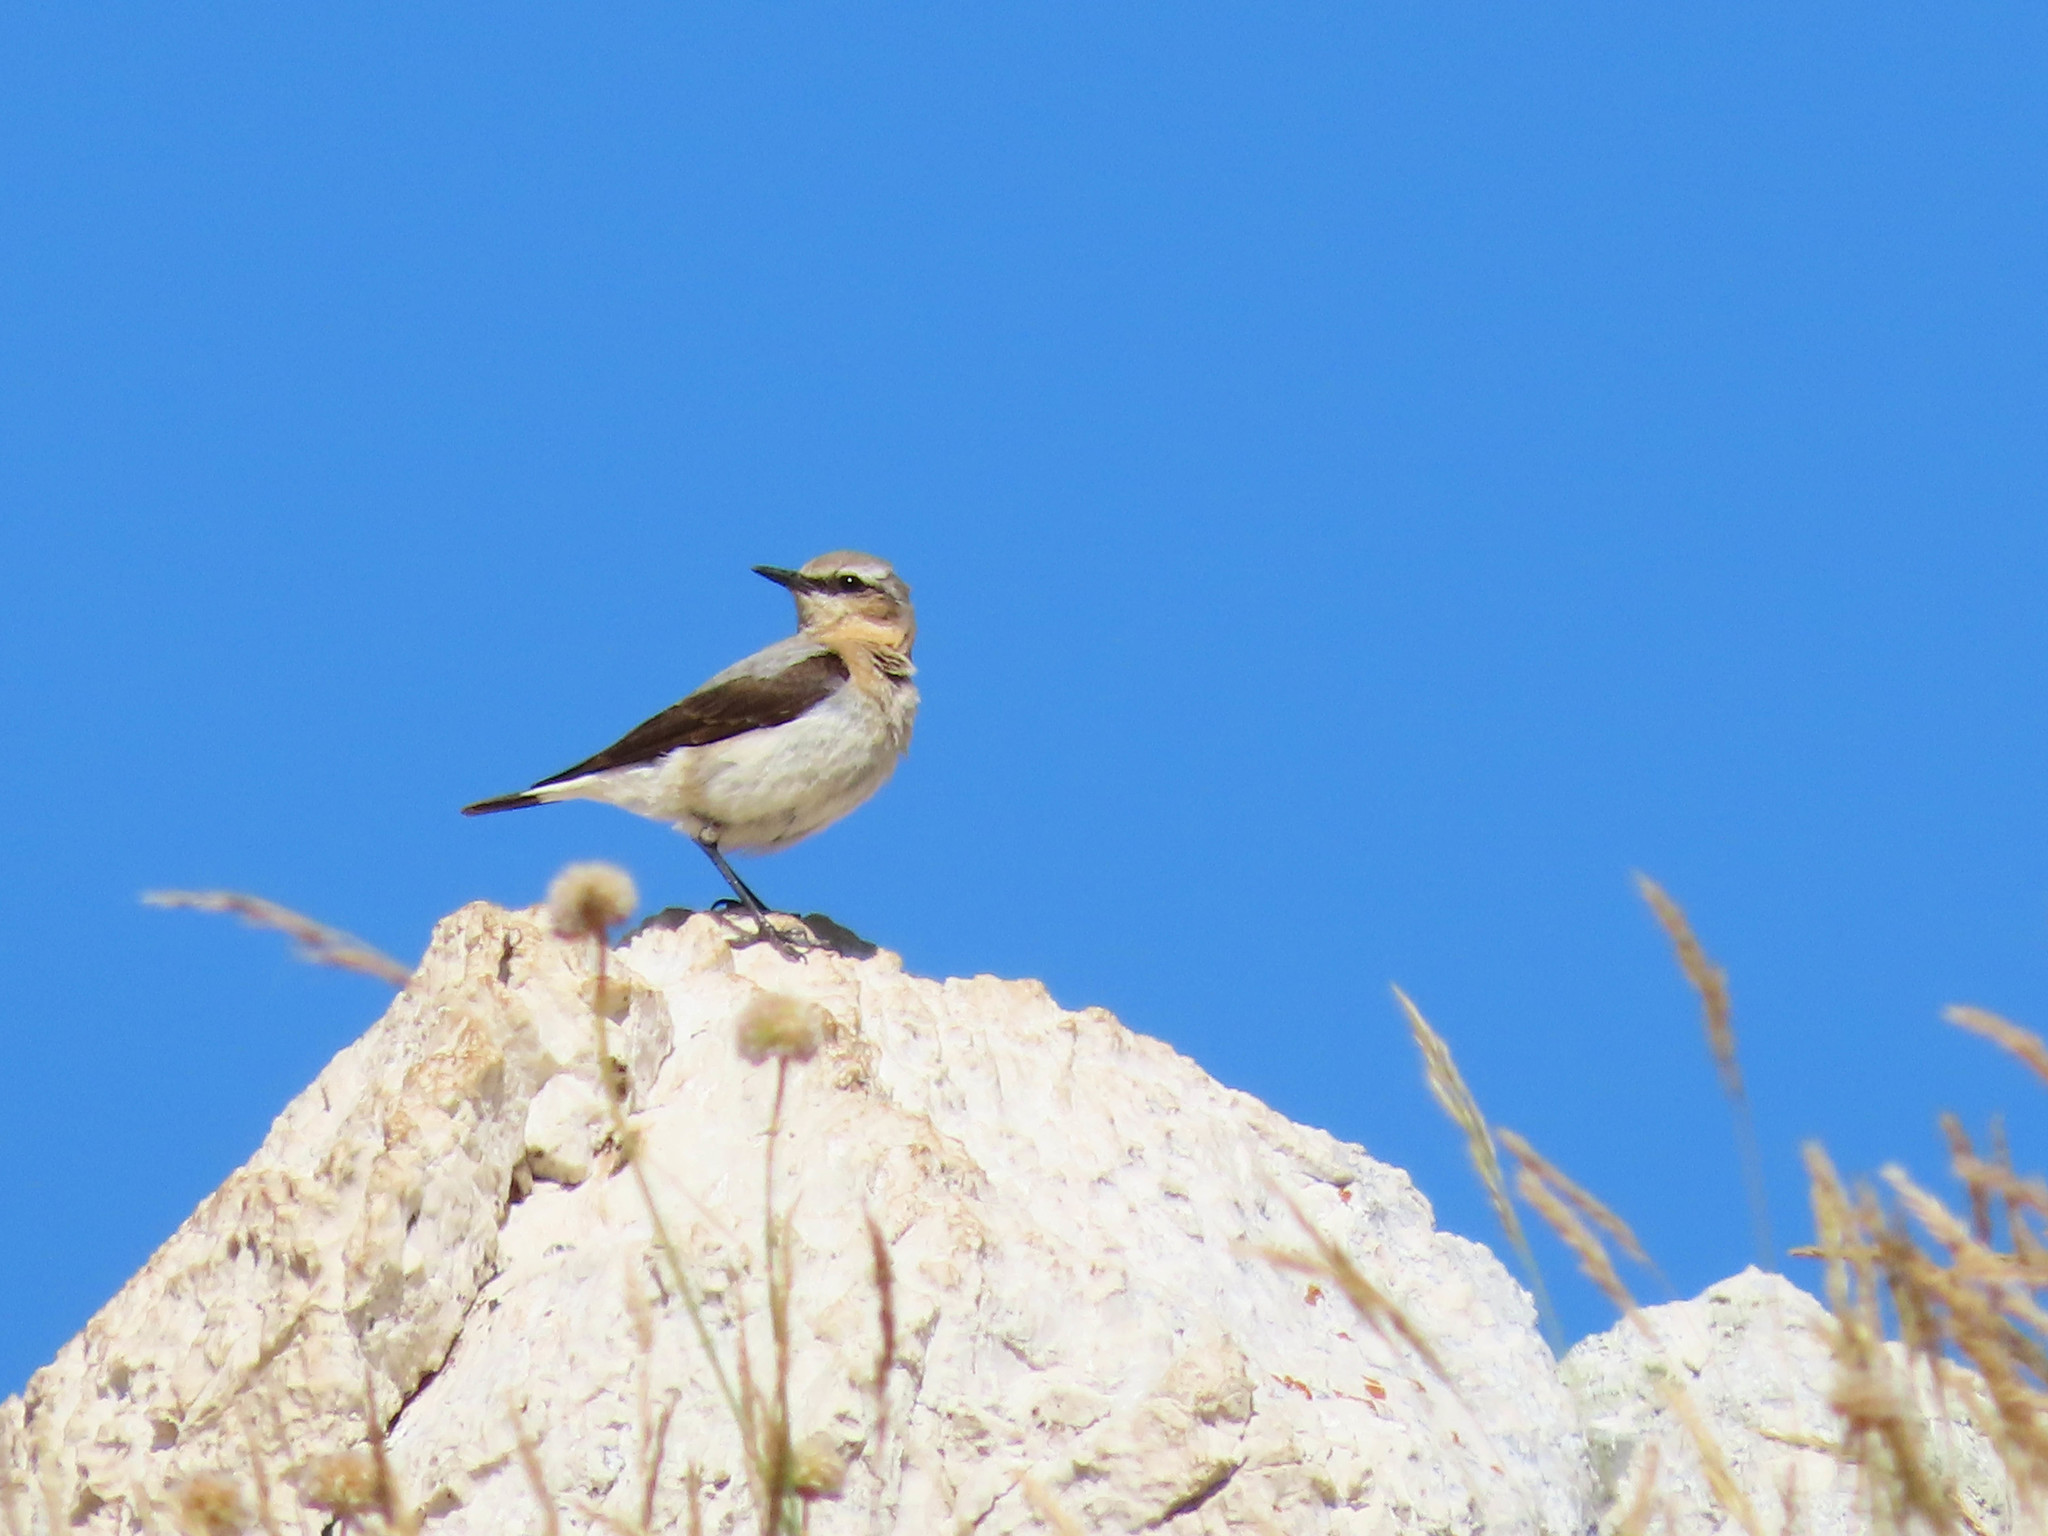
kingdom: Animalia
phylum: Chordata
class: Aves
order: Passeriformes
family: Muscicapidae
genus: Oenanthe
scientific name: Oenanthe oenanthe
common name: Northern wheatear
